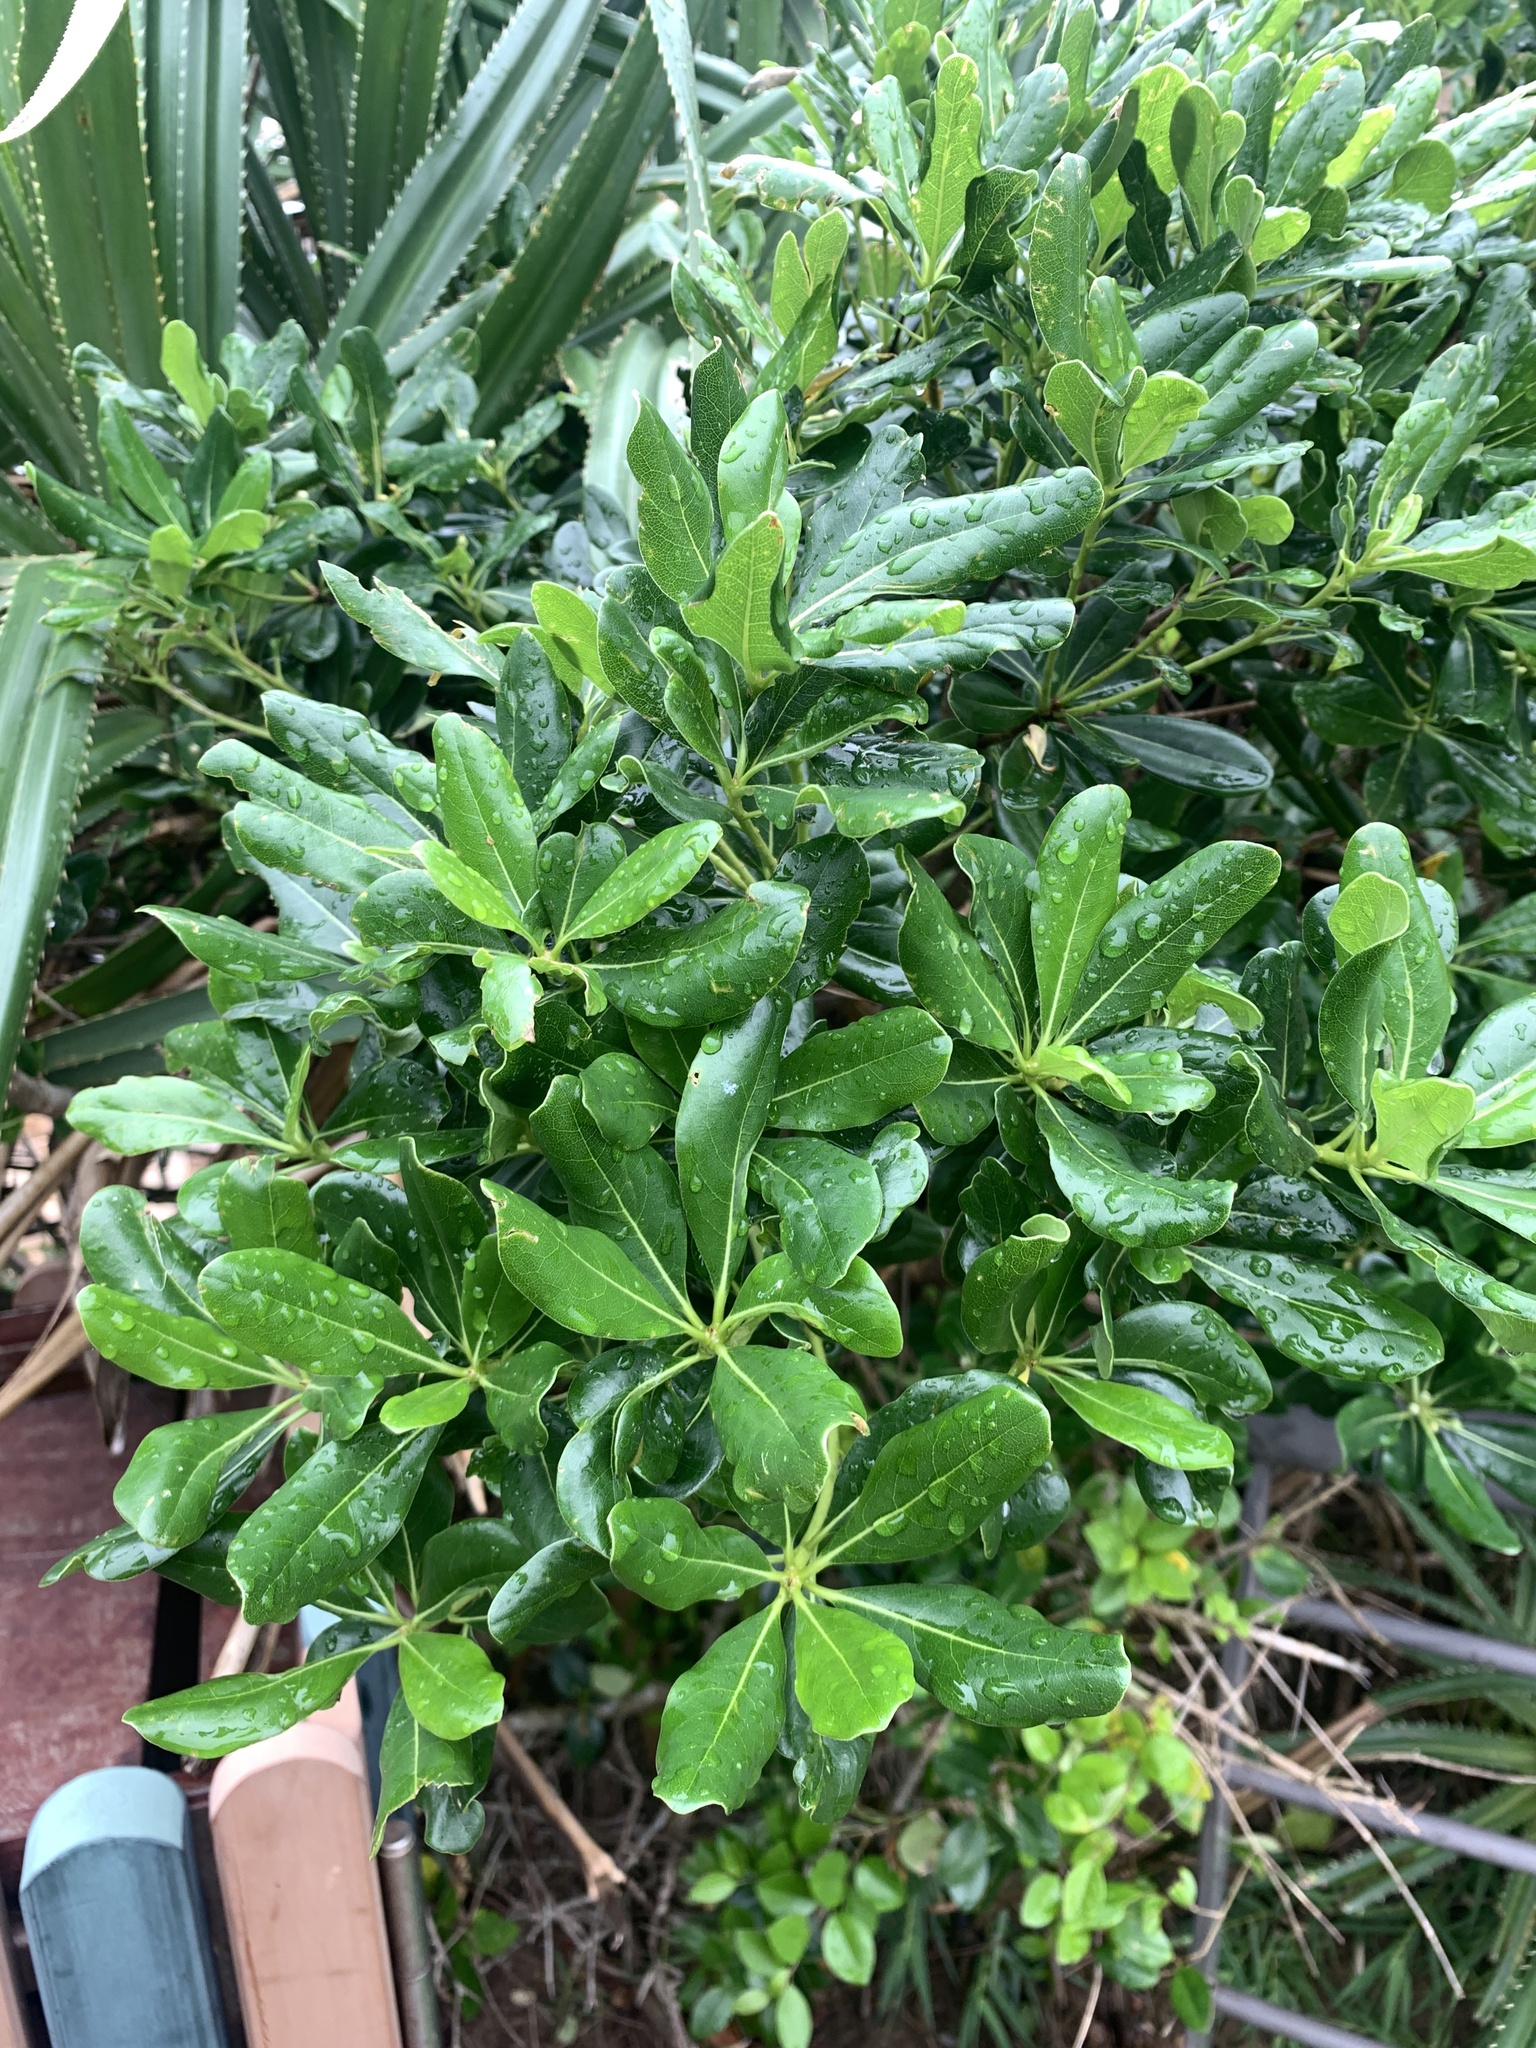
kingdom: Plantae
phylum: Tracheophyta
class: Magnoliopsida
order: Apiales
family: Pittosporaceae
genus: Pittosporum
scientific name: Pittosporum tobira
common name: Japanese cheesewood
